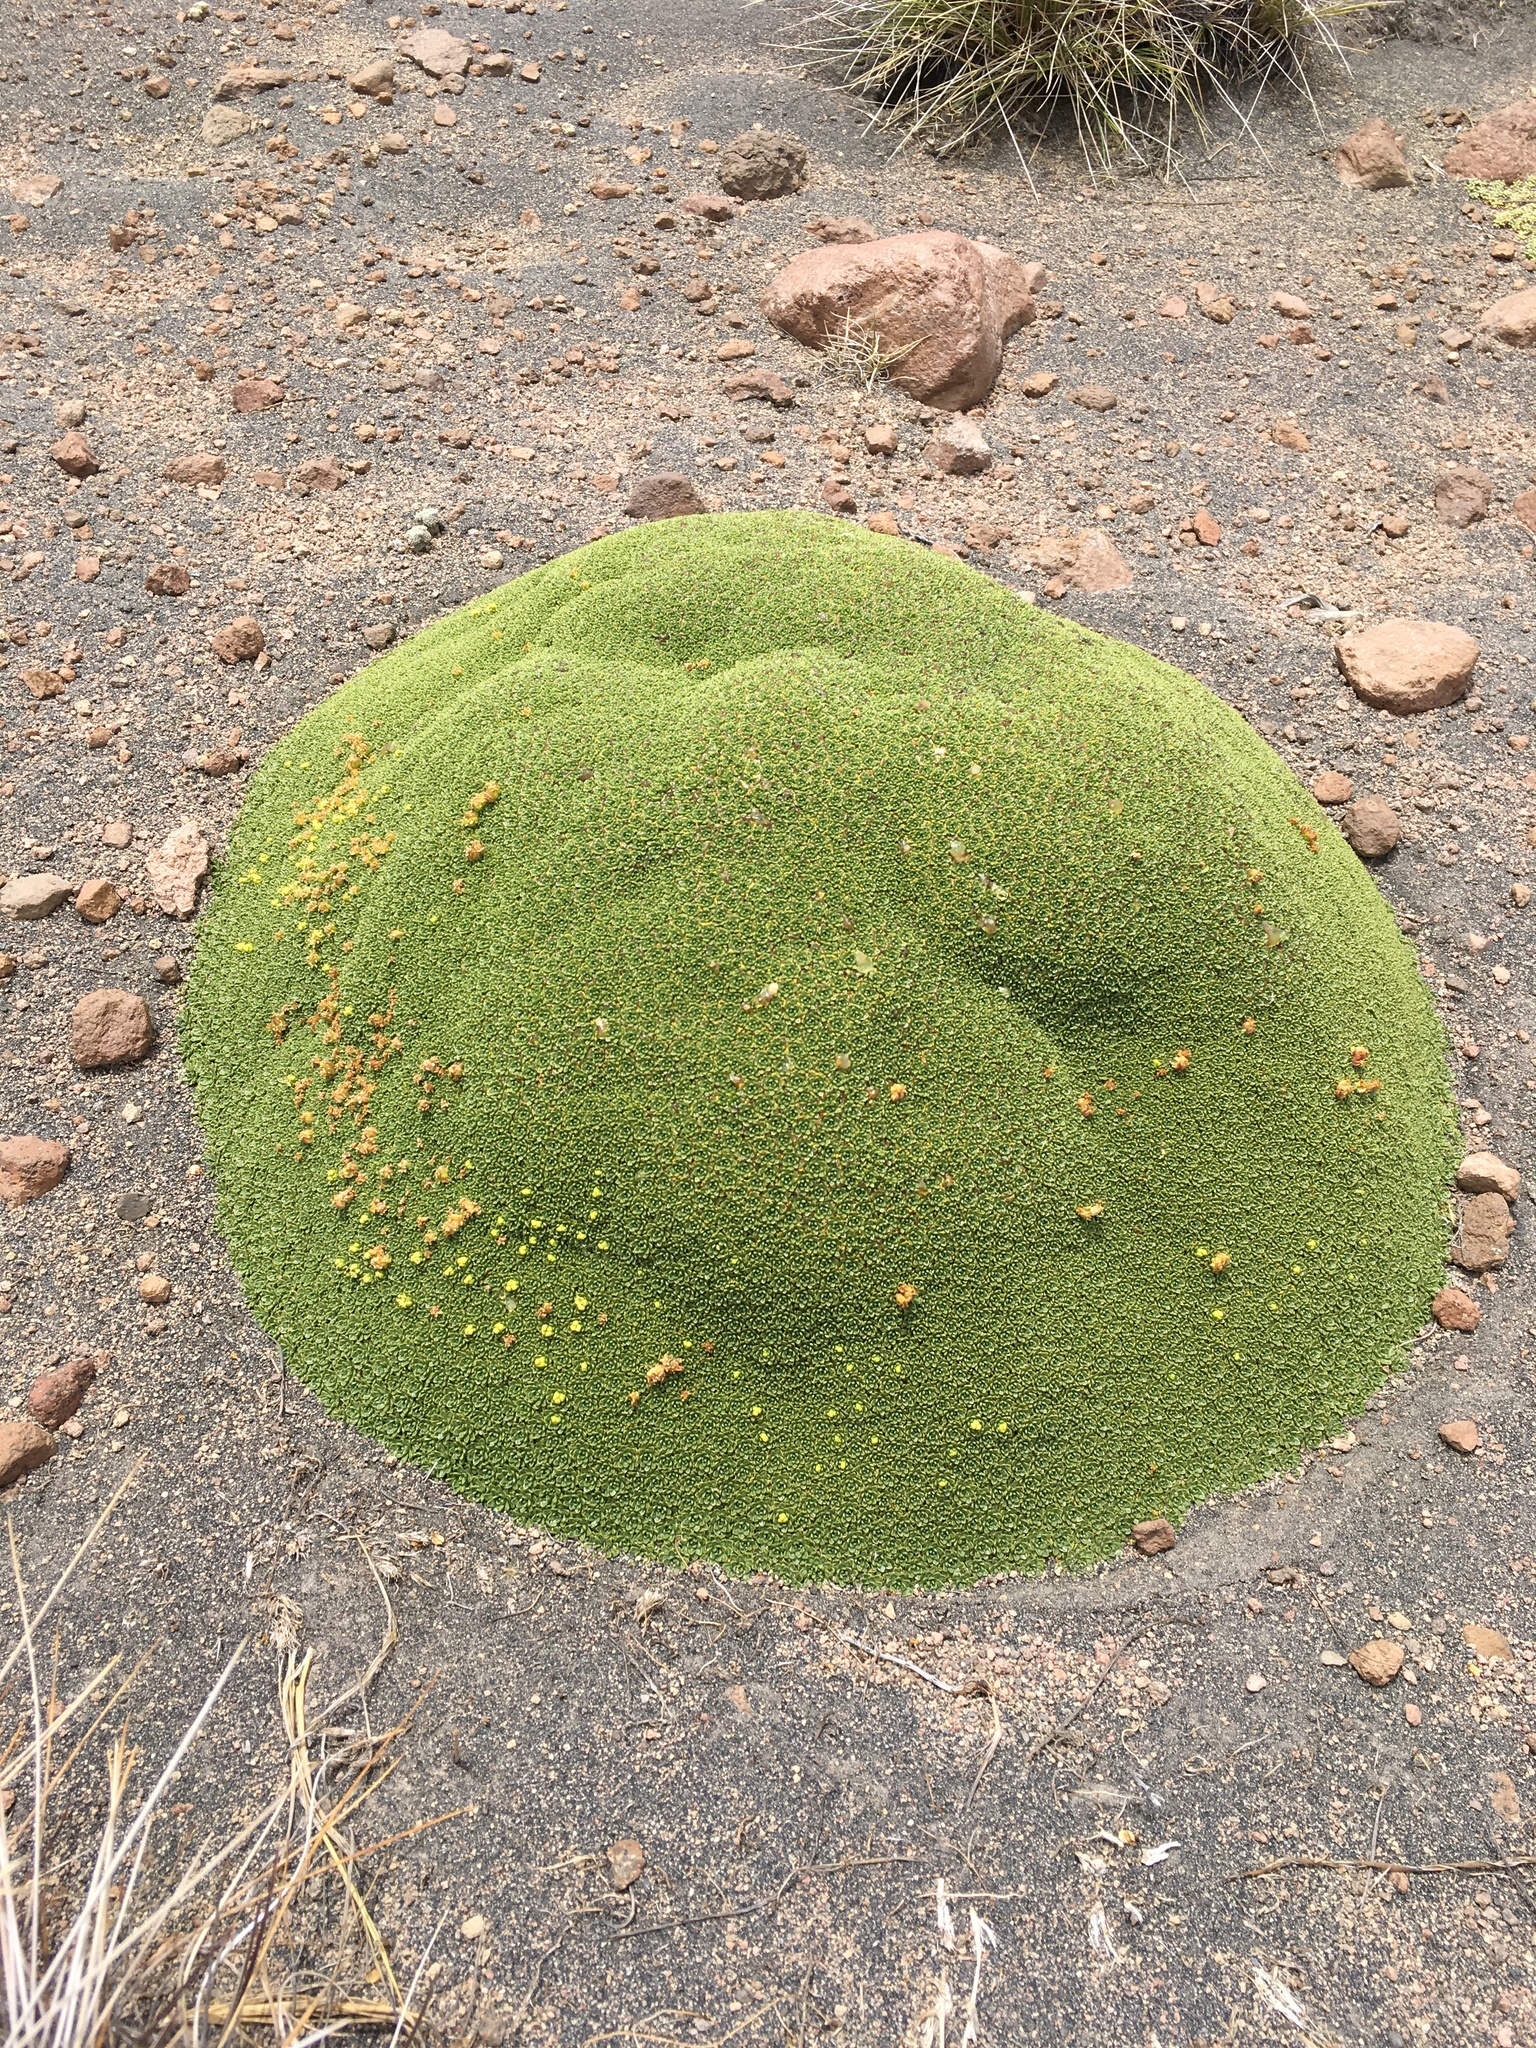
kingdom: Plantae
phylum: Tracheophyta
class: Magnoliopsida
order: Apiales
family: Apiaceae
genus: Azorella
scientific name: Azorella compacta
